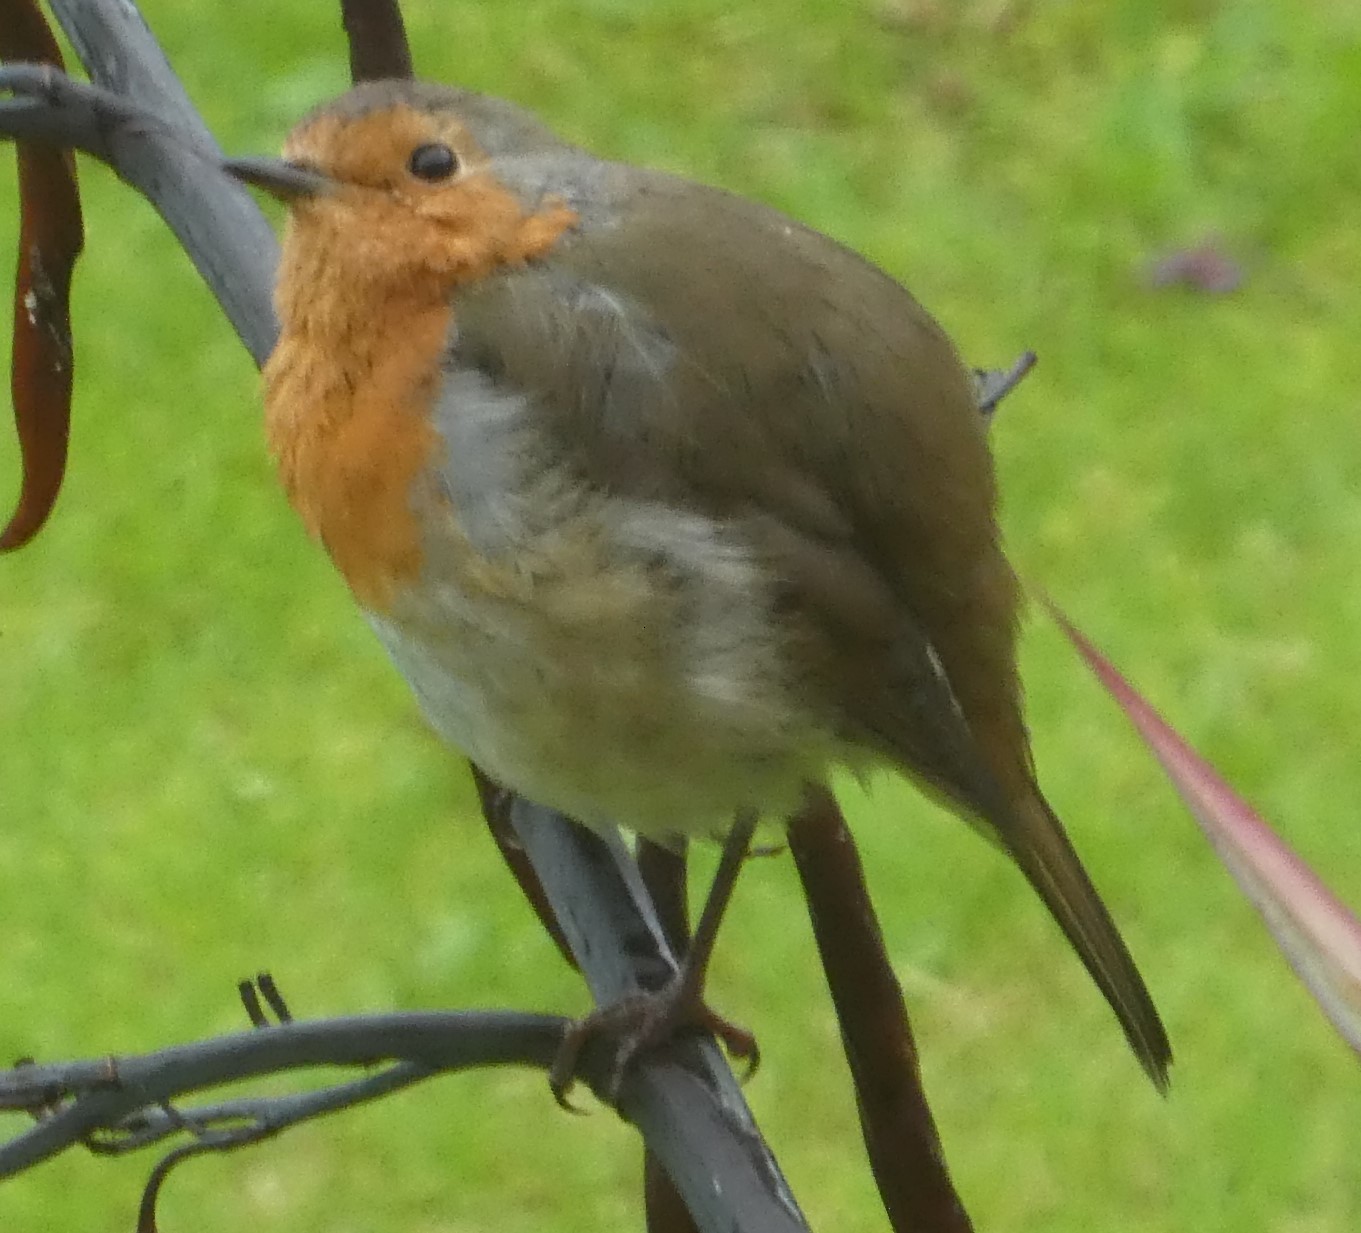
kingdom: Animalia
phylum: Chordata
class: Aves
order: Passeriformes
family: Muscicapidae
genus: Erithacus
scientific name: Erithacus rubecula
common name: European robin
